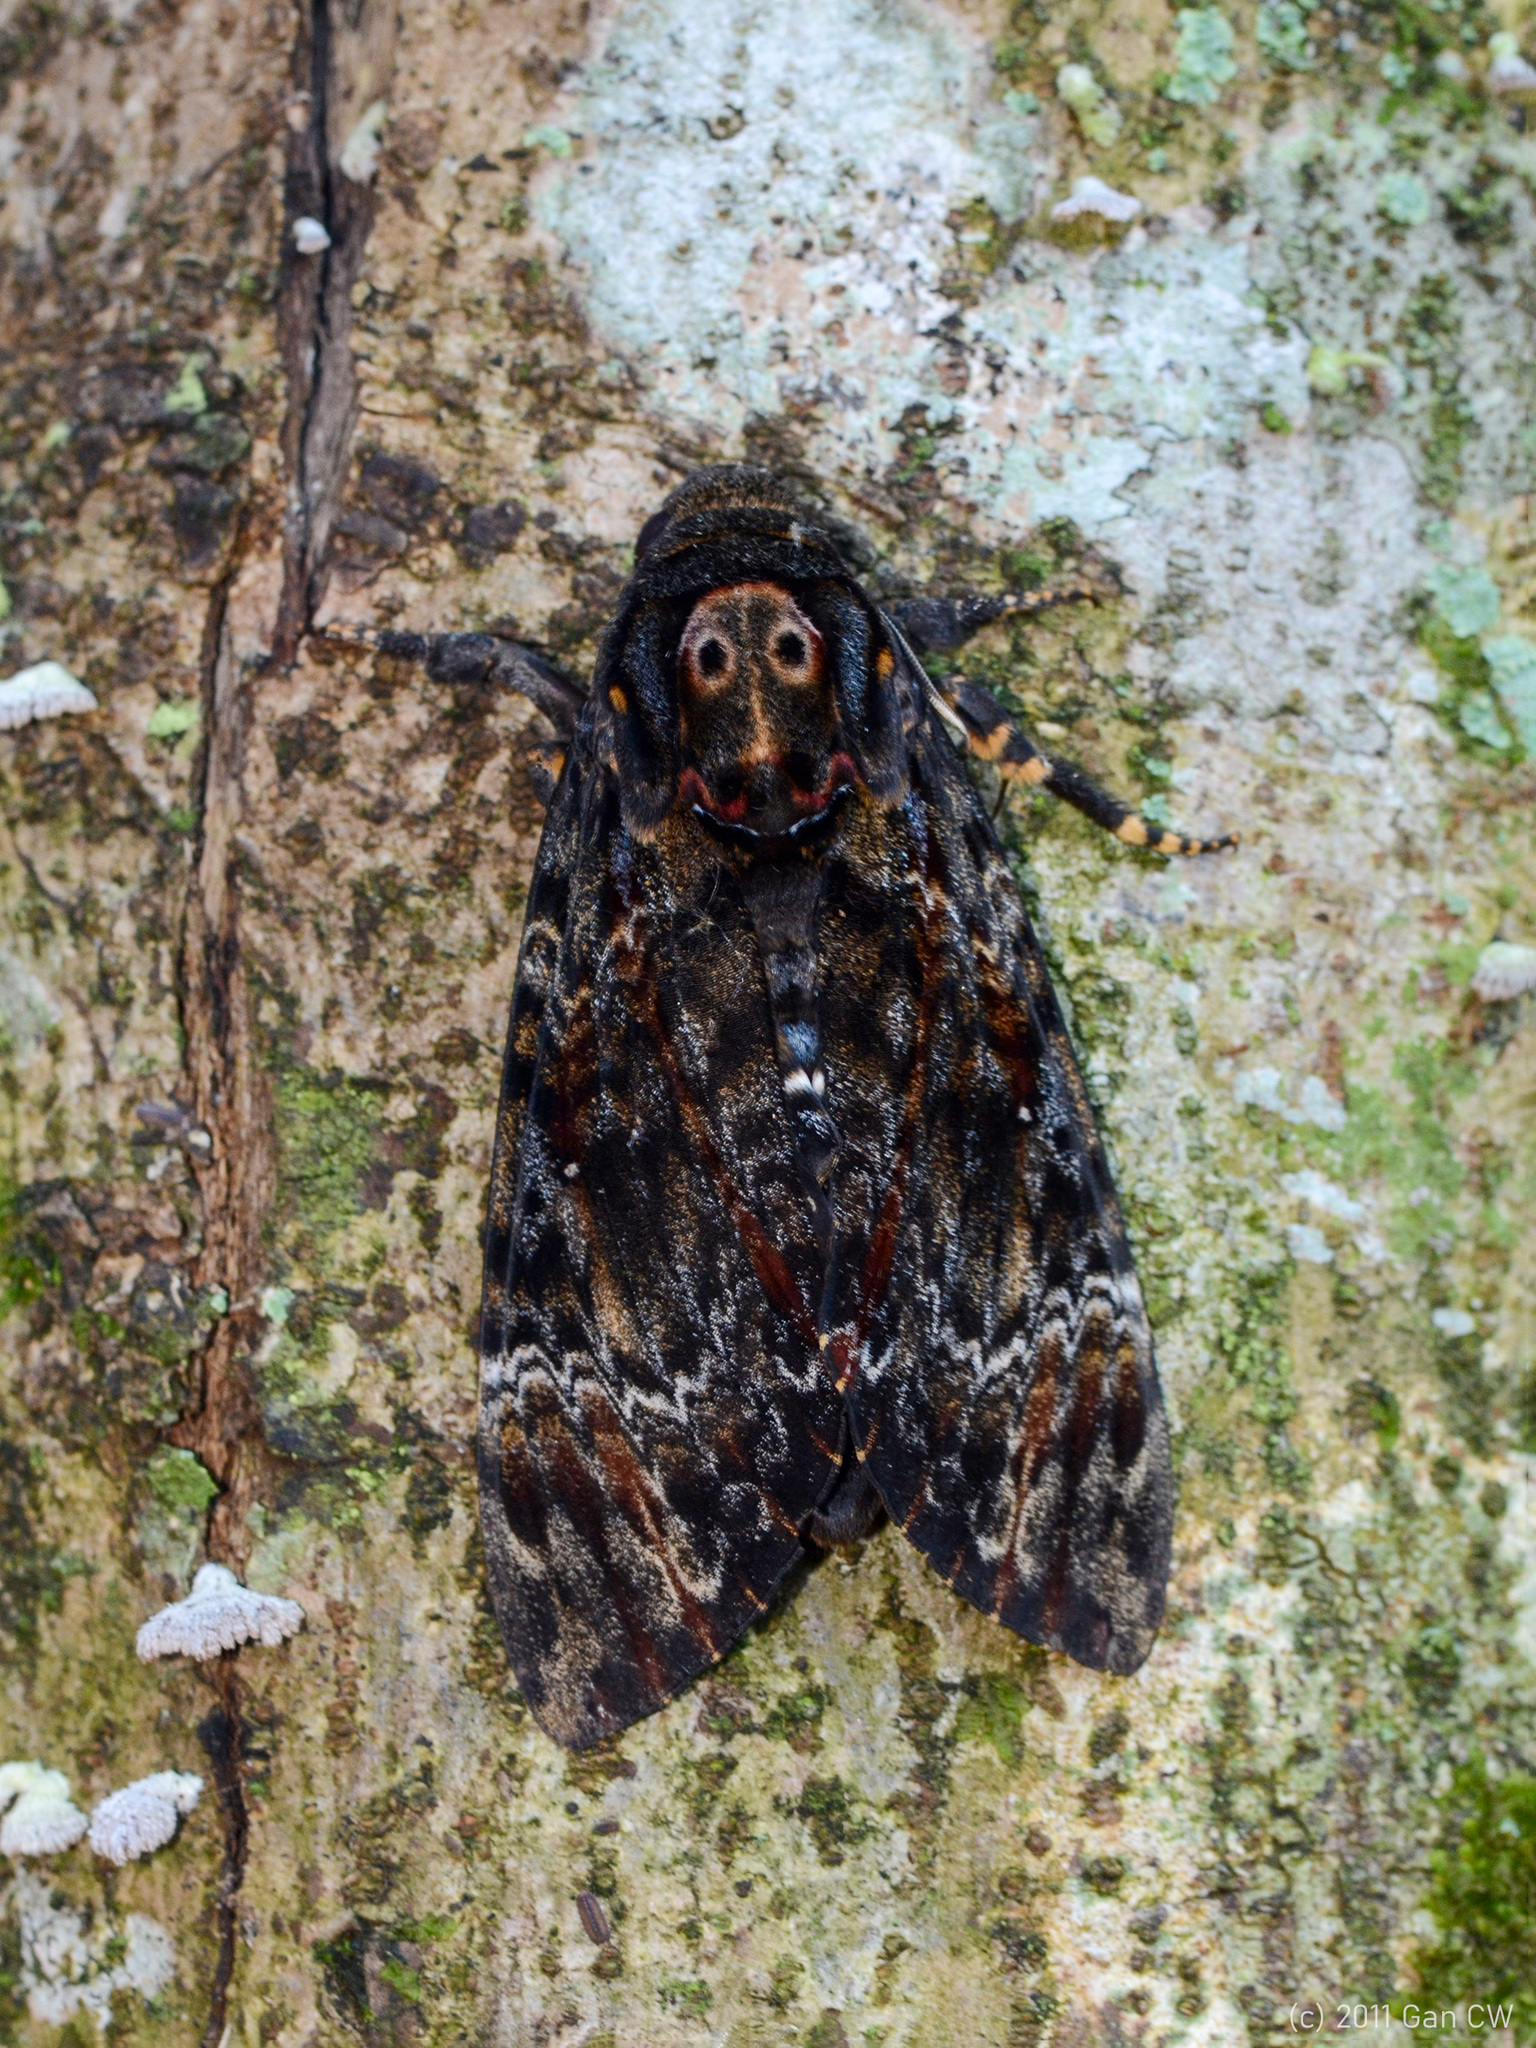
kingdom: Animalia
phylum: Arthropoda
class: Insecta
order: Lepidoptera
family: Sphingidae
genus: Acherontia
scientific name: Acherontia lachesis
